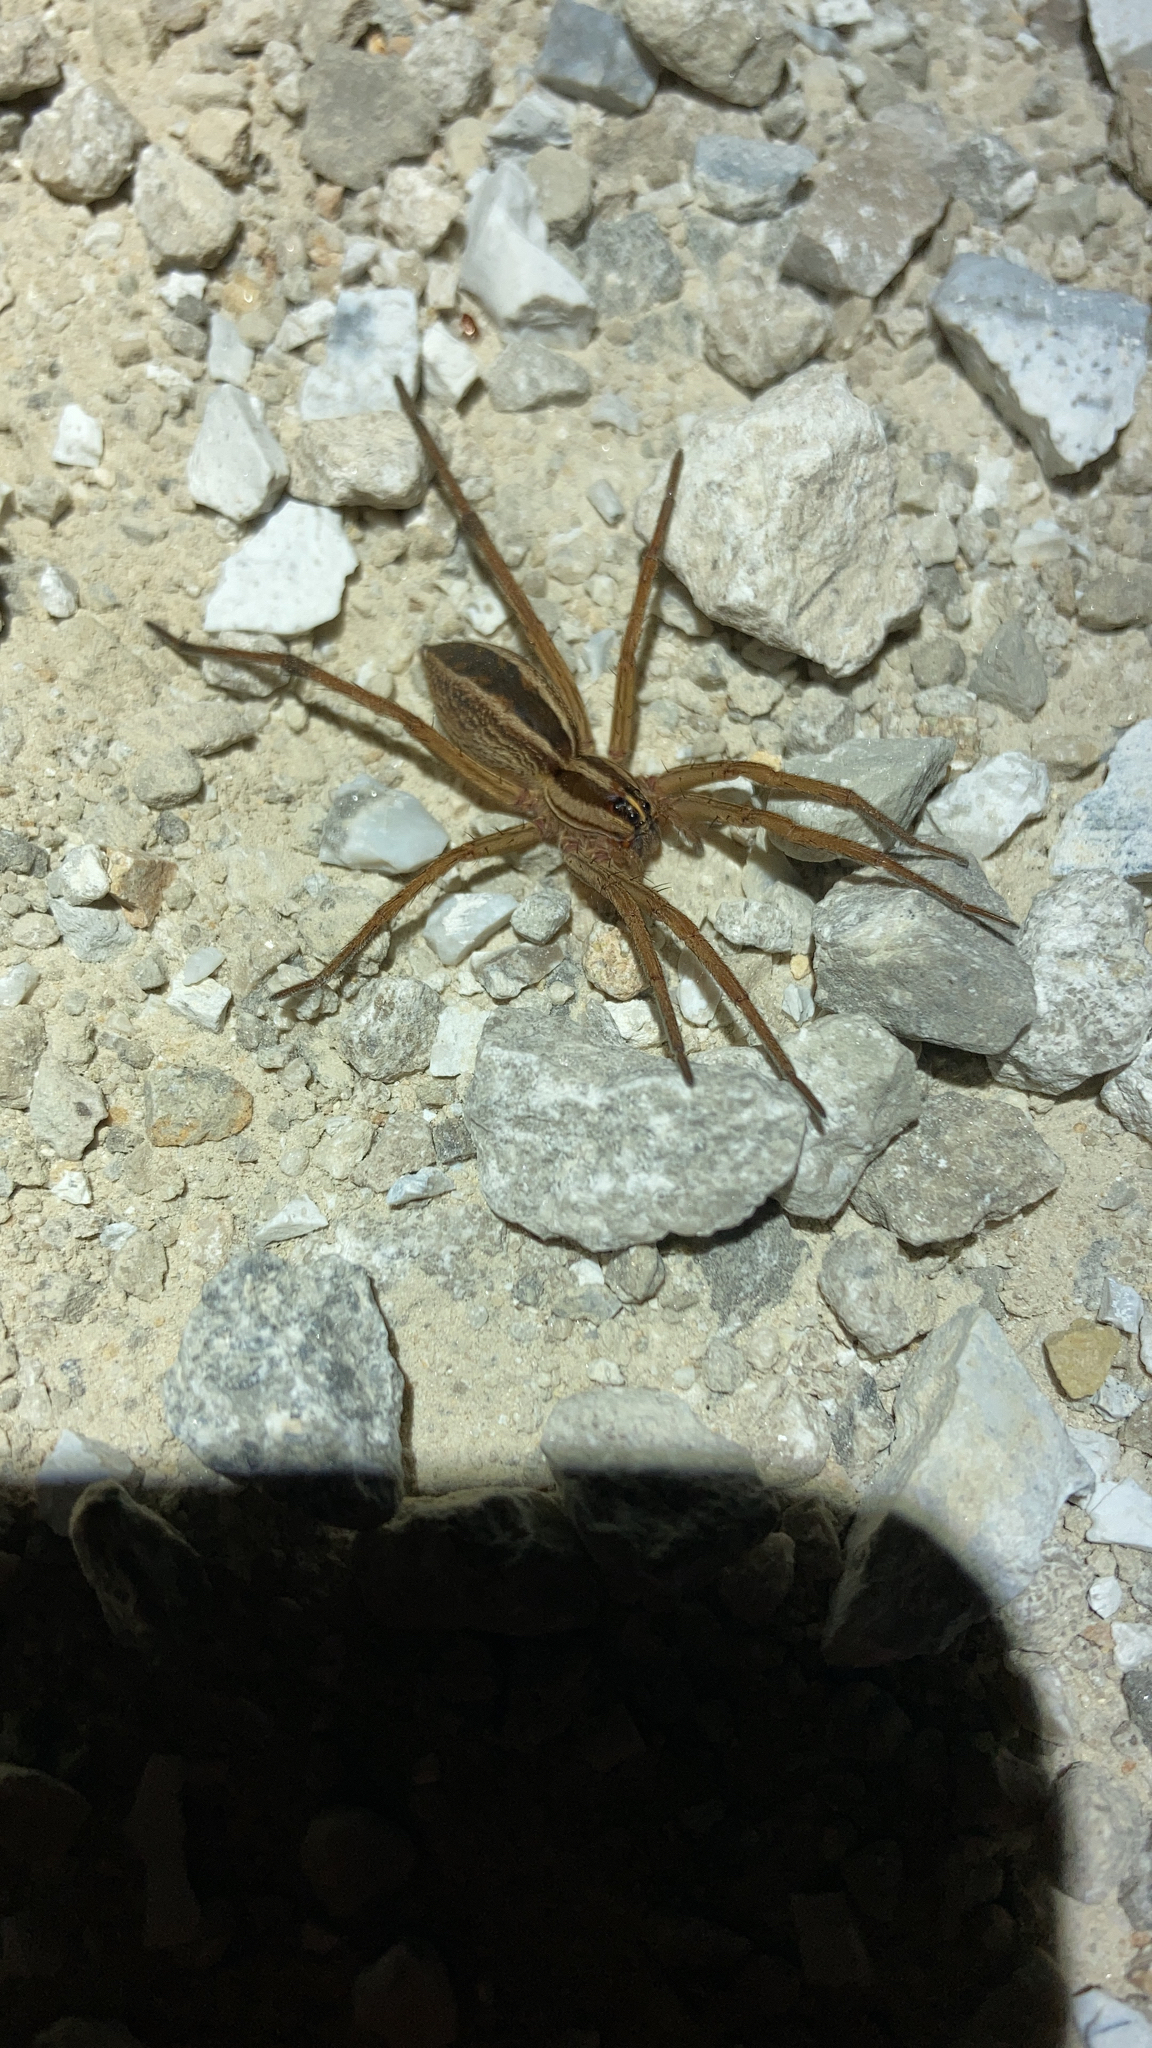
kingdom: Animalia
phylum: Arthropoda
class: Arachnida
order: Araneae
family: Lycosidae
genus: Rabidosa
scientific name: Rabidosa rabida
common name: Rabid wolf spider
